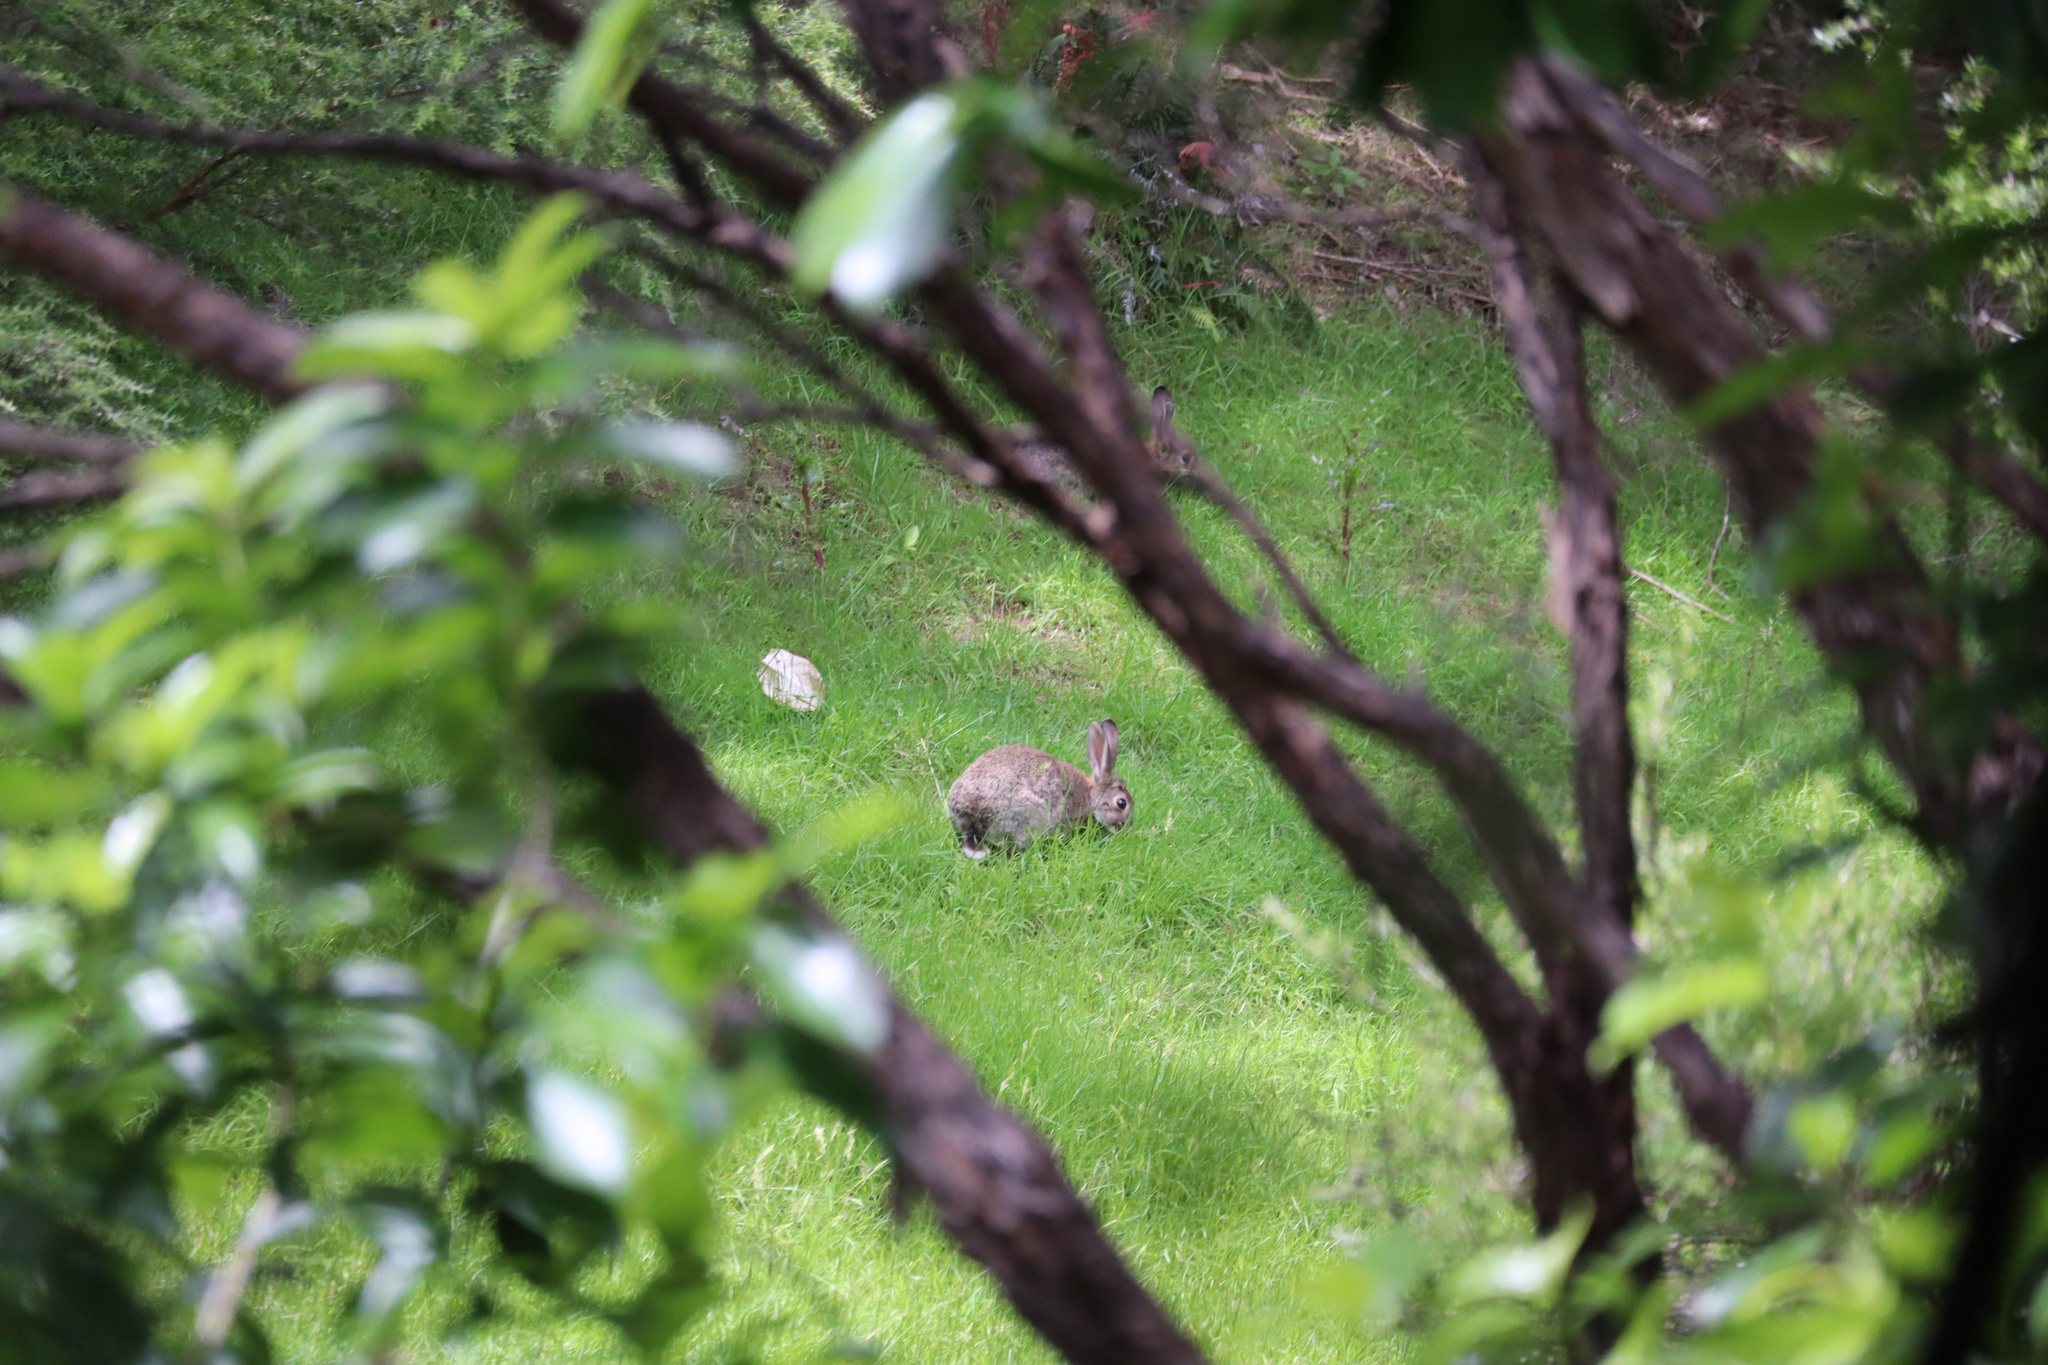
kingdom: Animalia
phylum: Chordata
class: Mammalia
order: Lagomorpha
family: Leporidae
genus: Oryctolagus
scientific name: Oryctolagus cuniculus
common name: European rabbit
